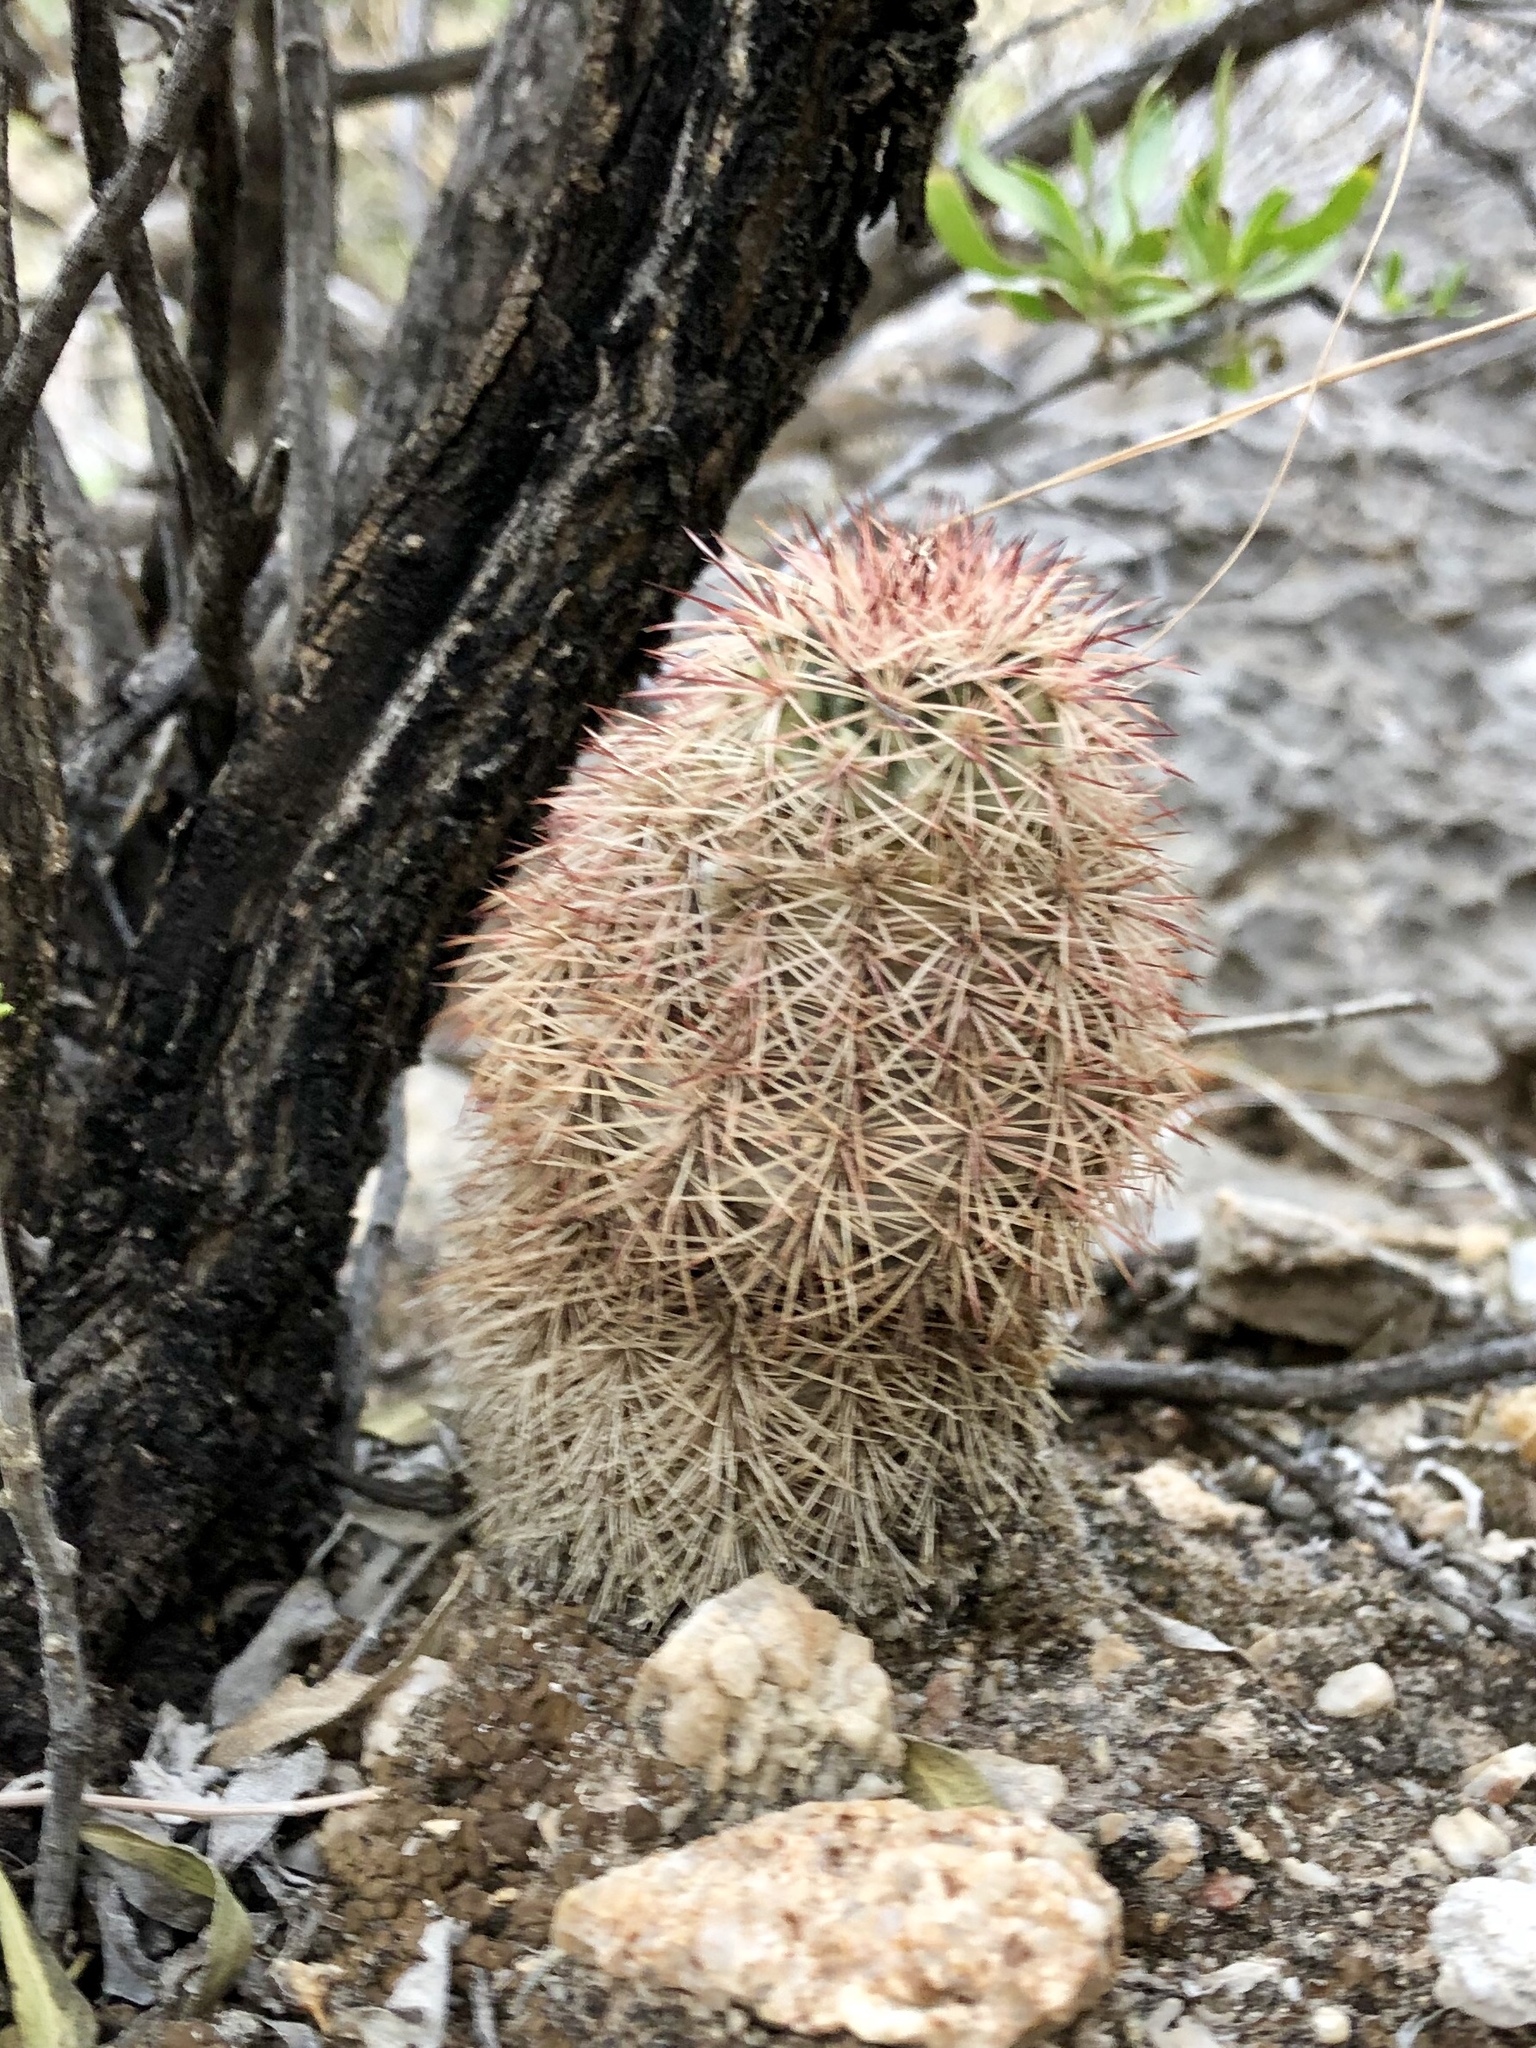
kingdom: Plantae
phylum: Tracheophyta
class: Magnoliopsida
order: Caryophyllales
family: Cactaceae
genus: Echinocereus
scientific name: Echinocereus dasyacanthus
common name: Spiny hedgehog cactus
